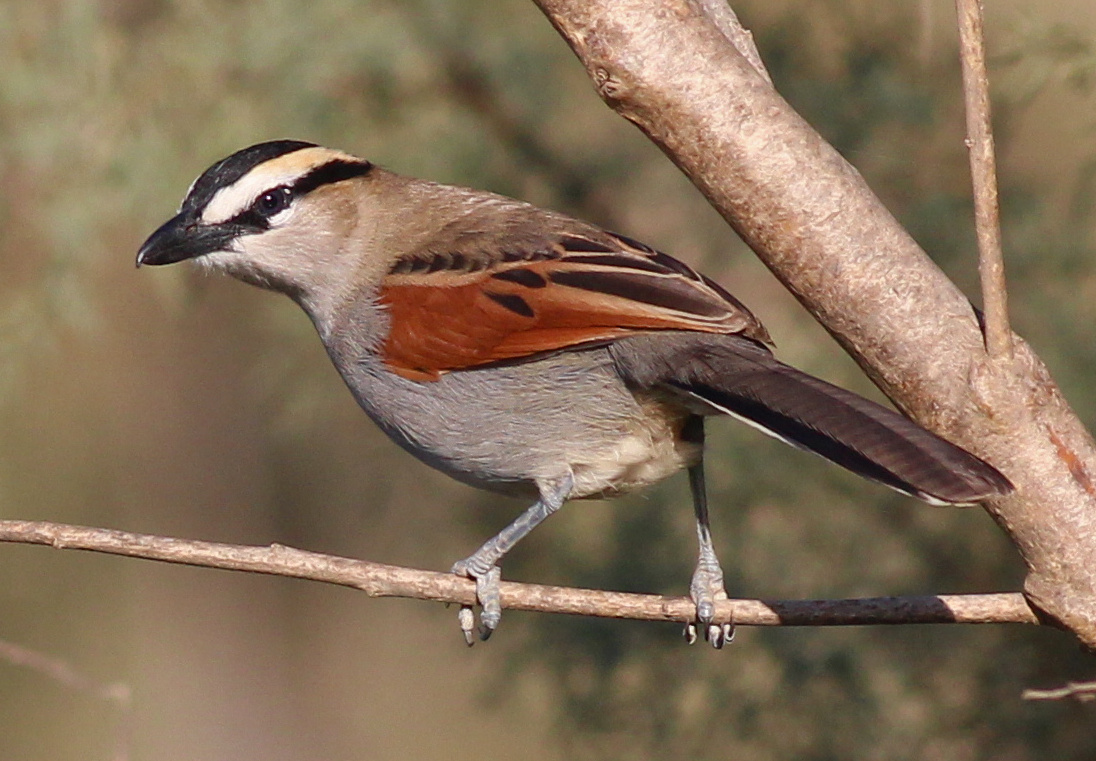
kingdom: Animalia
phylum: Chordata
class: Aves
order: Passeriformes
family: Malaconotidae
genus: Tchagra
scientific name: Tchagra senegalus
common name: Black-crowned tchagra
